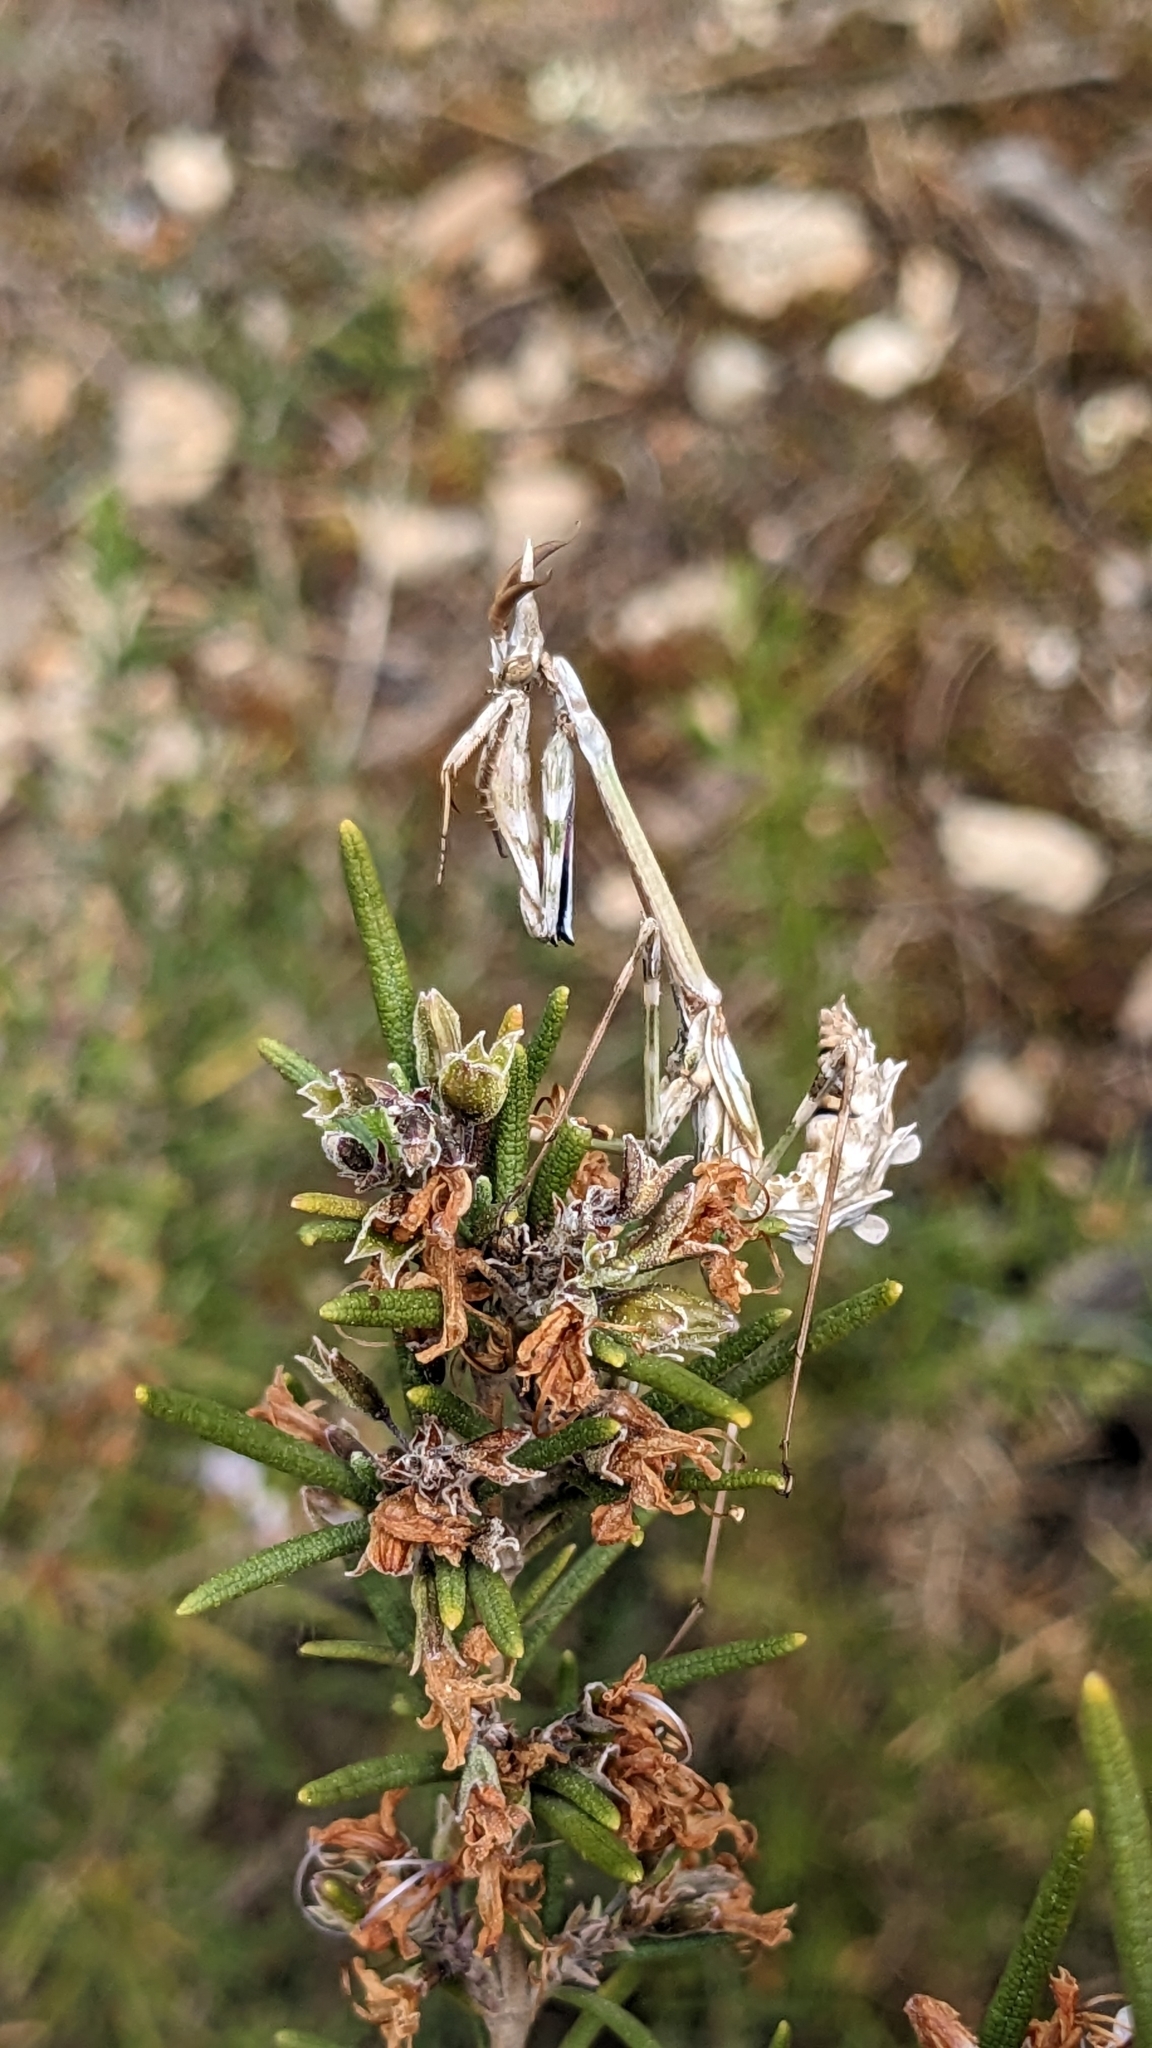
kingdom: Animalia
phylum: Arthropoda
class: Insecta
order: Mantodea
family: Empusidae
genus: Empusa
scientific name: Empusa pennata
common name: Conehead mantis
